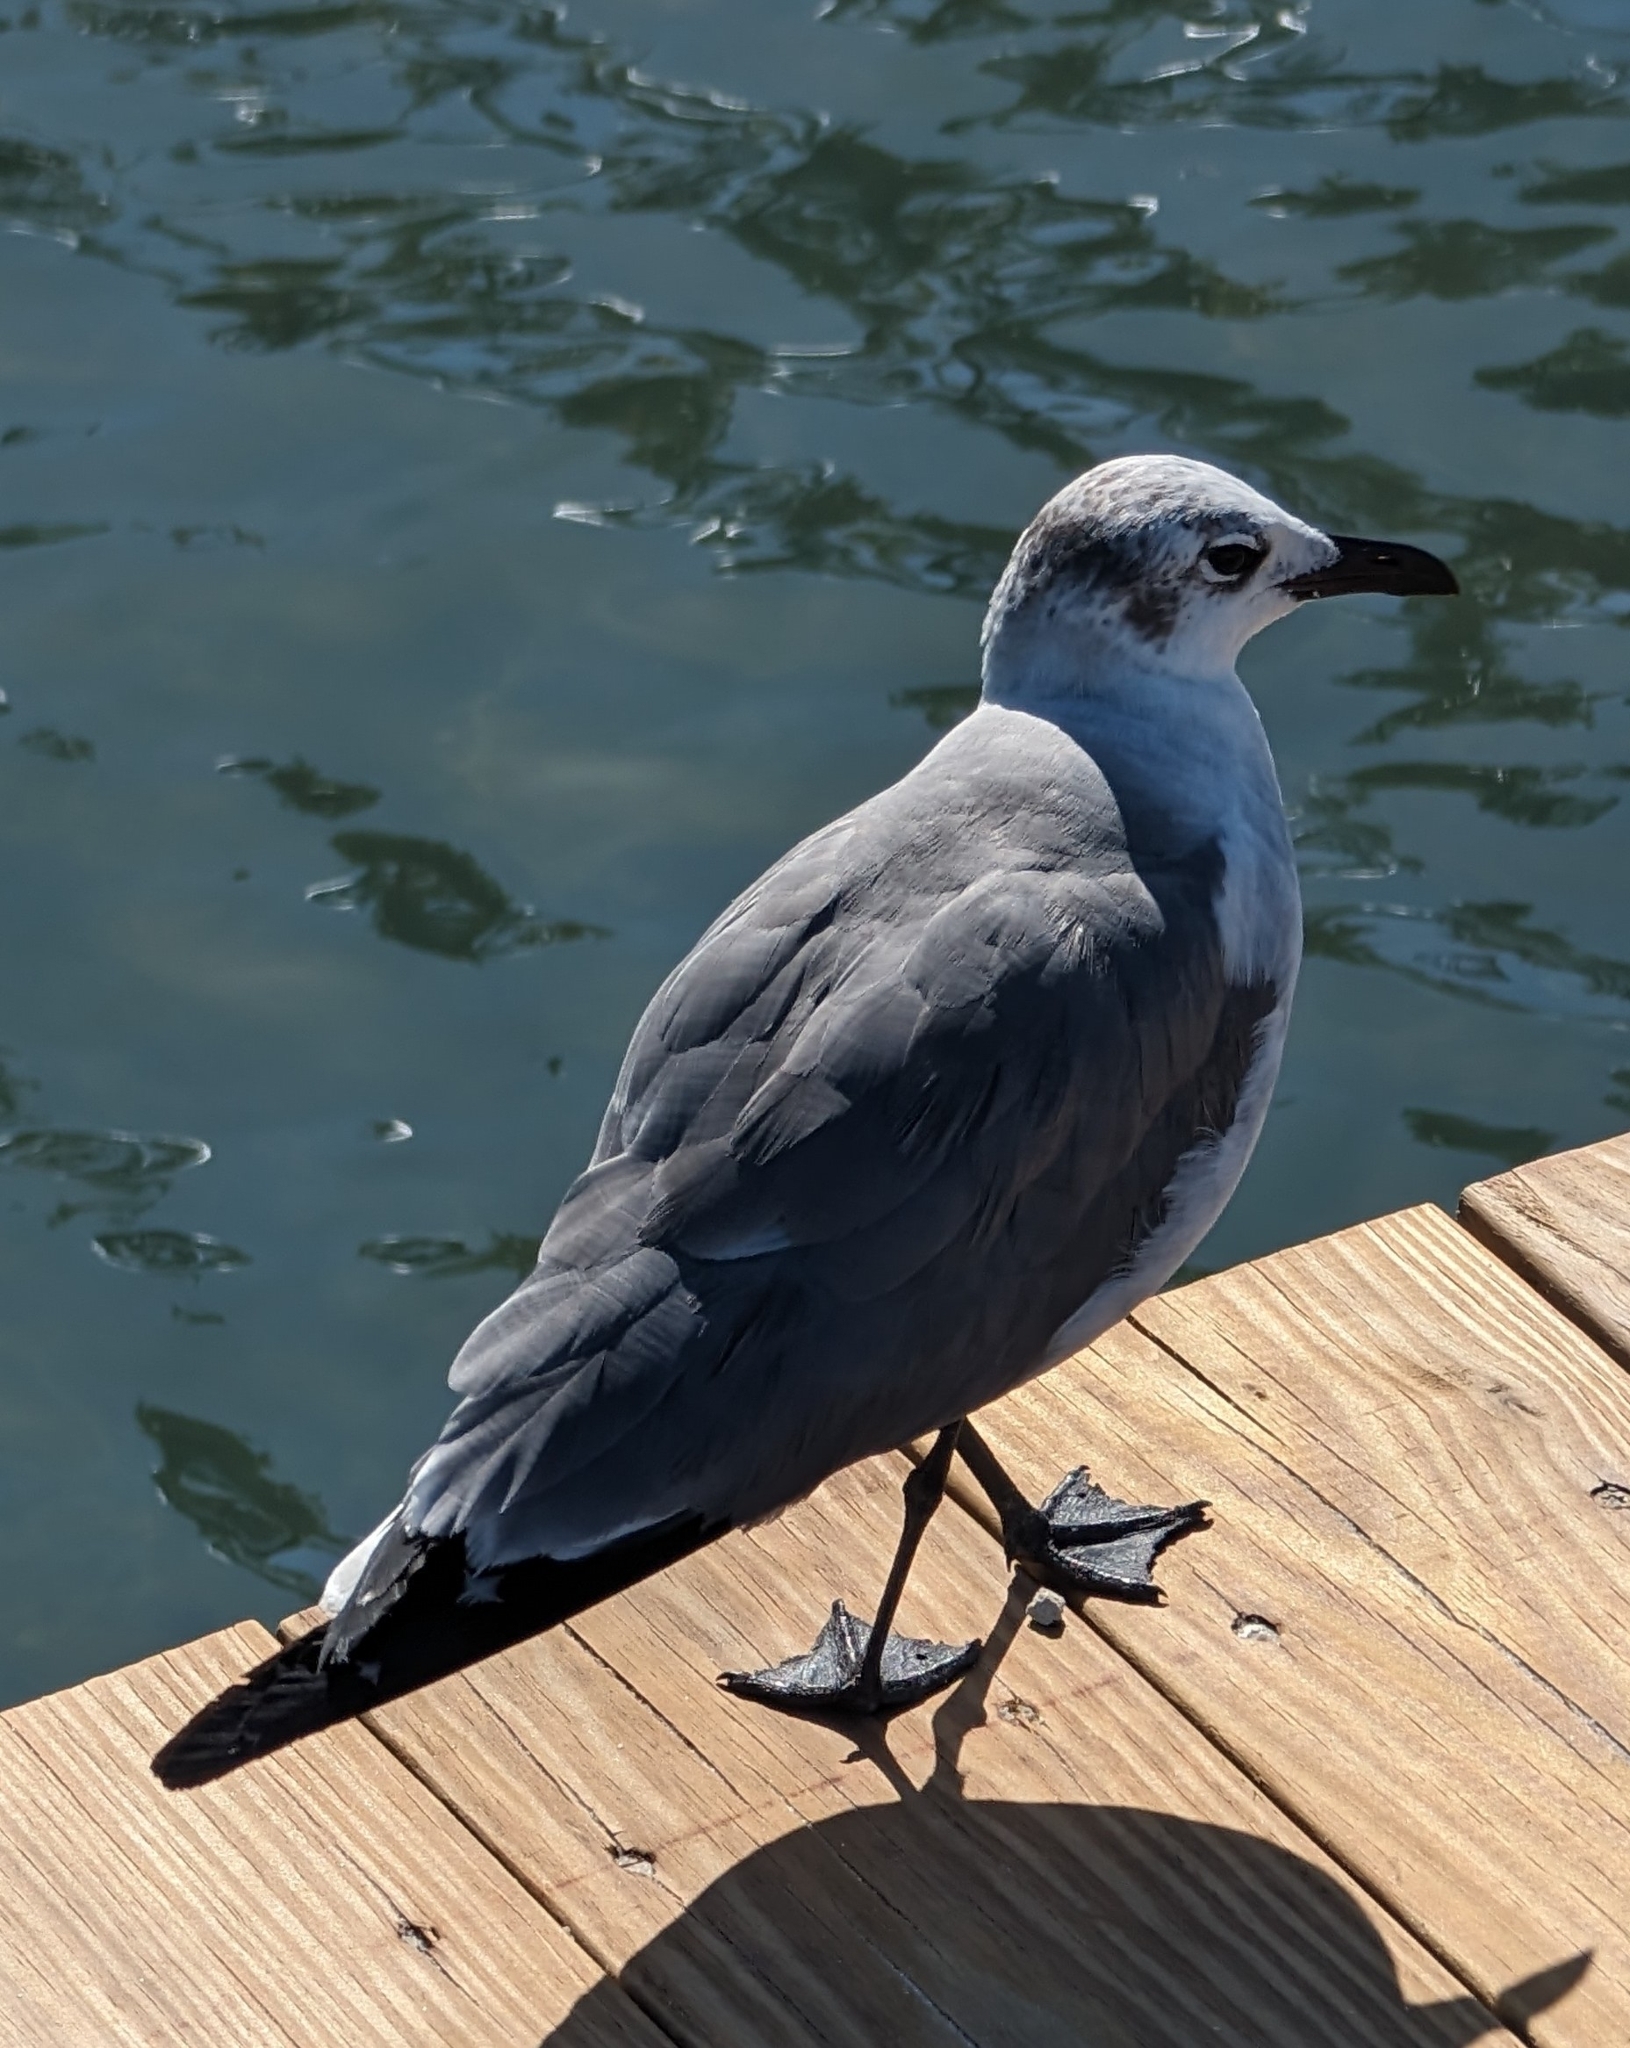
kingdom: Animalia
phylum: Chordata
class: Aves
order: Charadriiformes
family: Laridae
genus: Leucophaeus
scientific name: Leucophaeus atricilla
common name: Laughing gull
